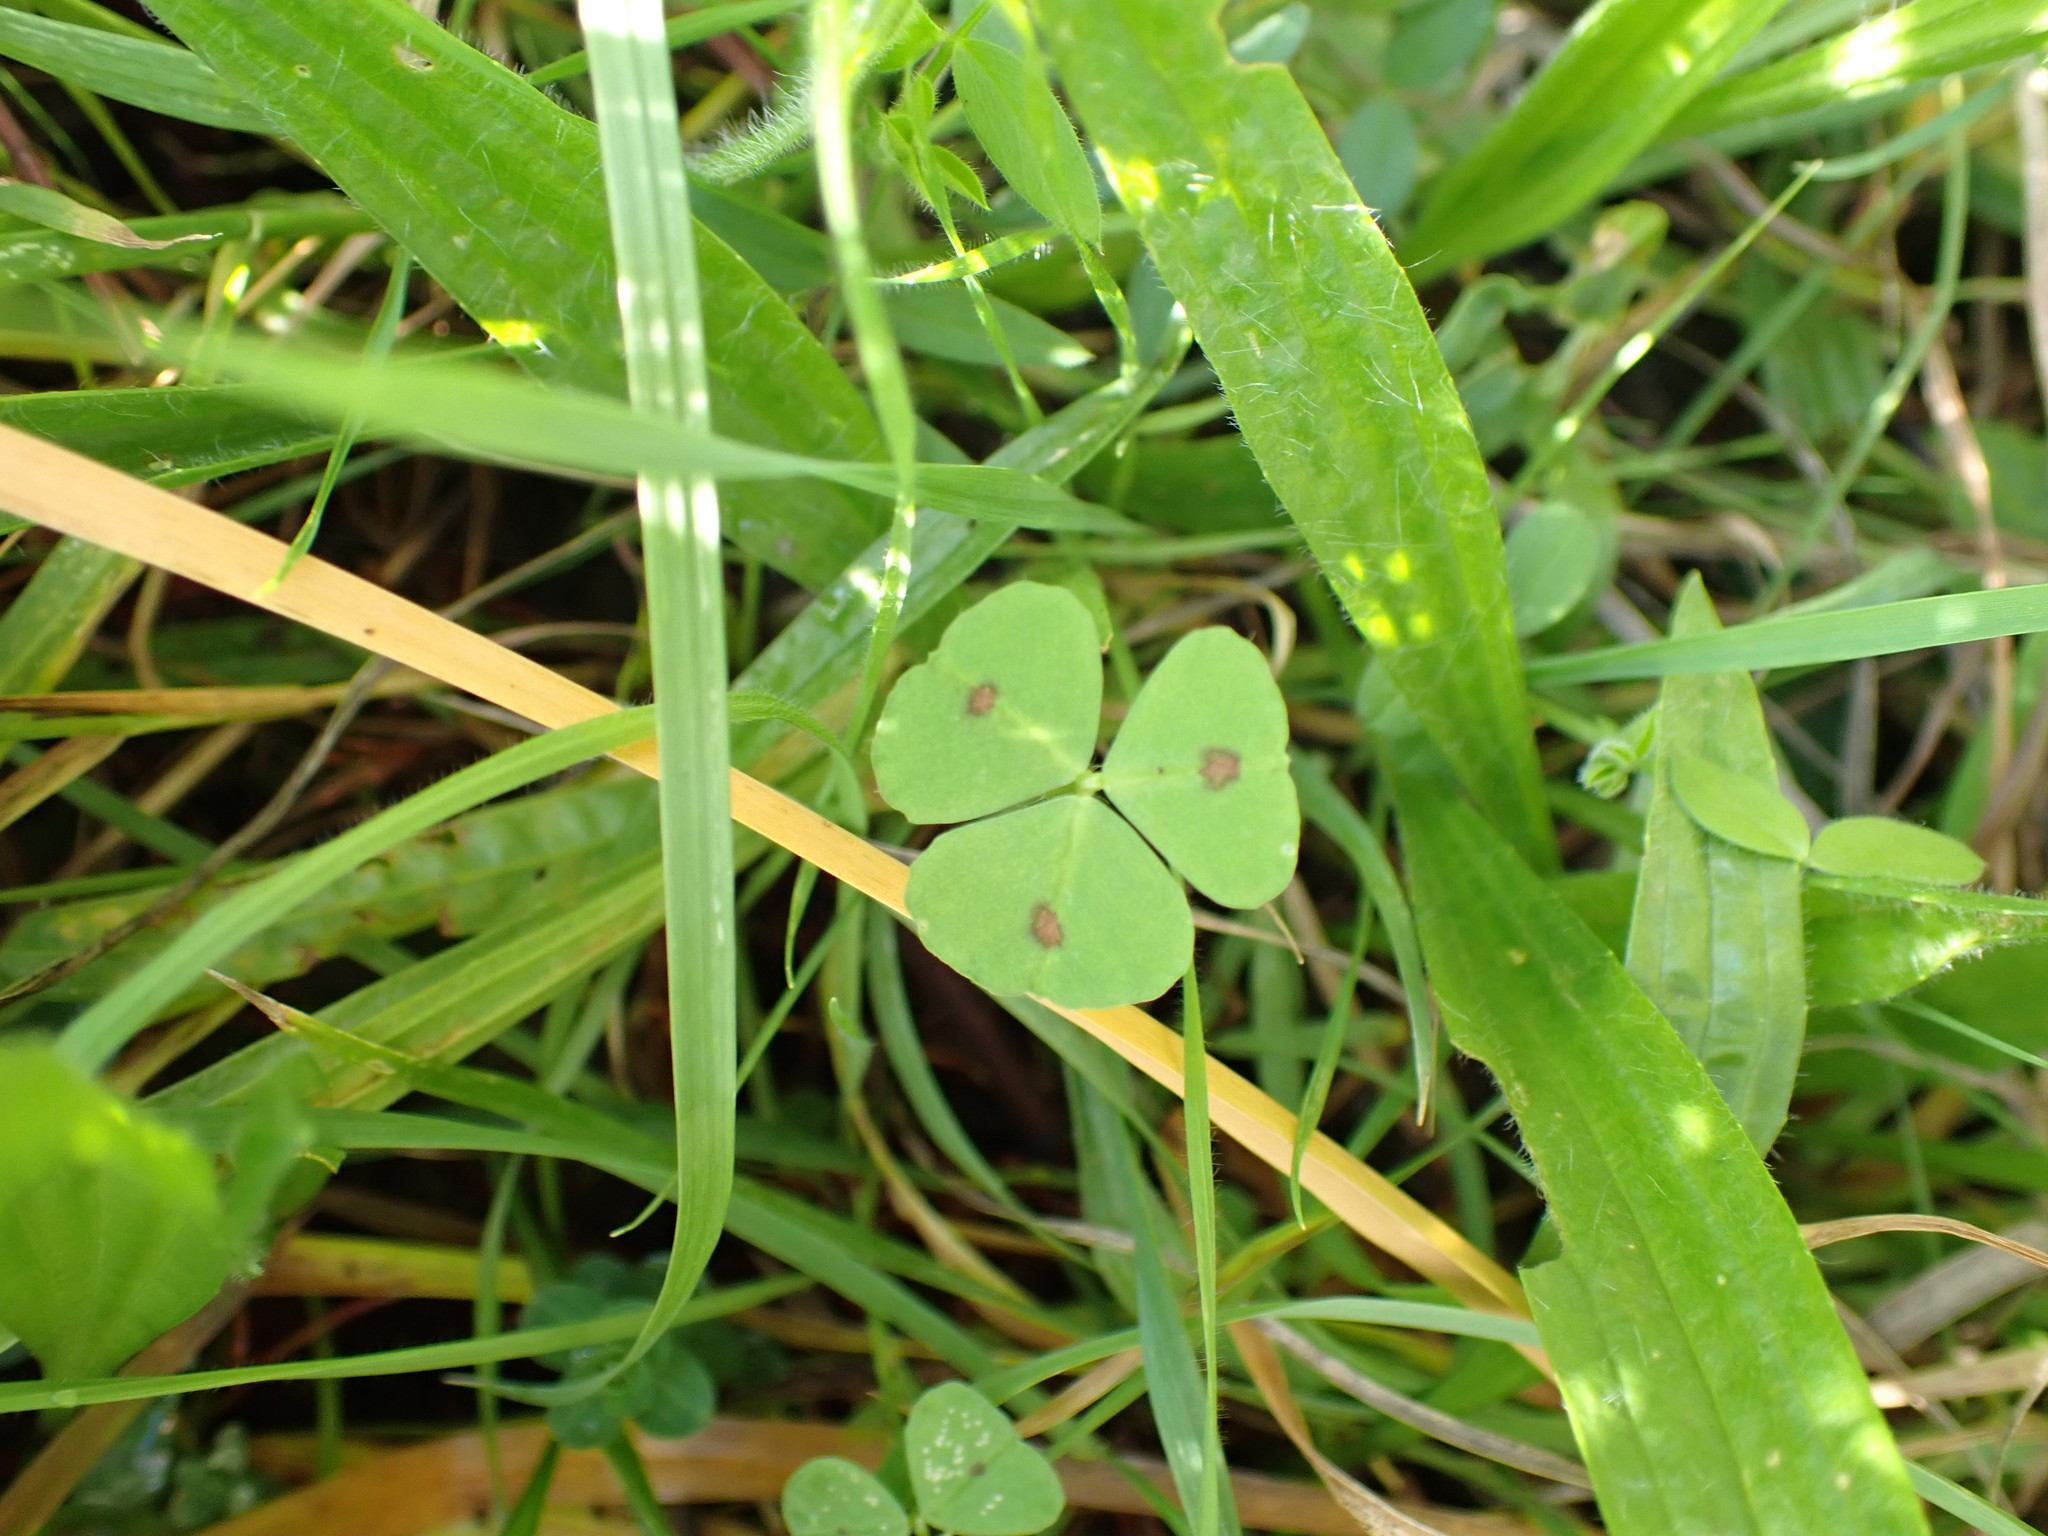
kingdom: Plantae
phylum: Tracheophyta
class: Magnoliopsida
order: Fabales
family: Fabaceae
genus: Medicago
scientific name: Medicago arabica
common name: Spotted medick
